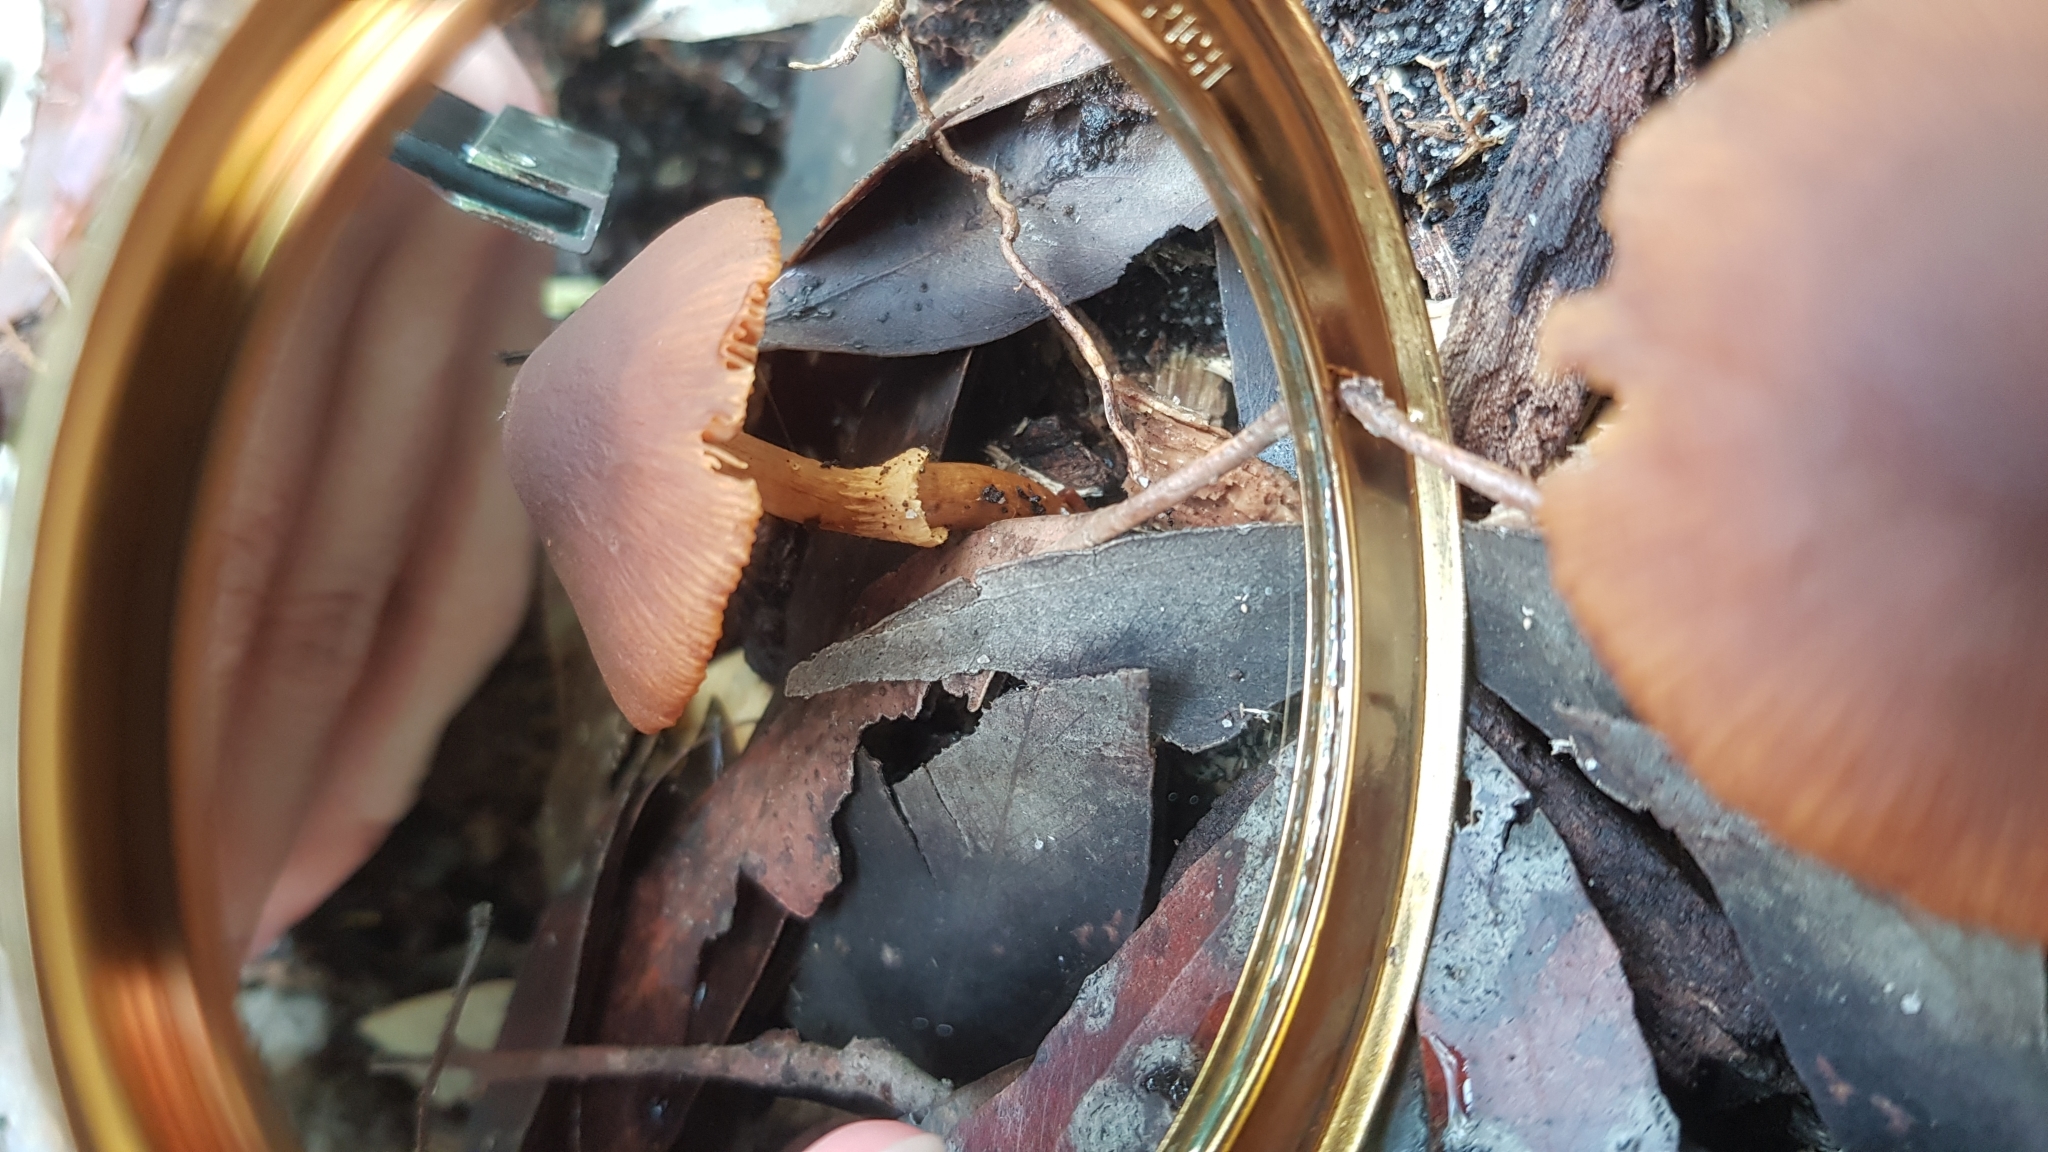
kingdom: Fungi
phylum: Basidiomycota
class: Agaricomycetes
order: Agaricales
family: Bolbitiaceae
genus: Descolea
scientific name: Descolea recedens
